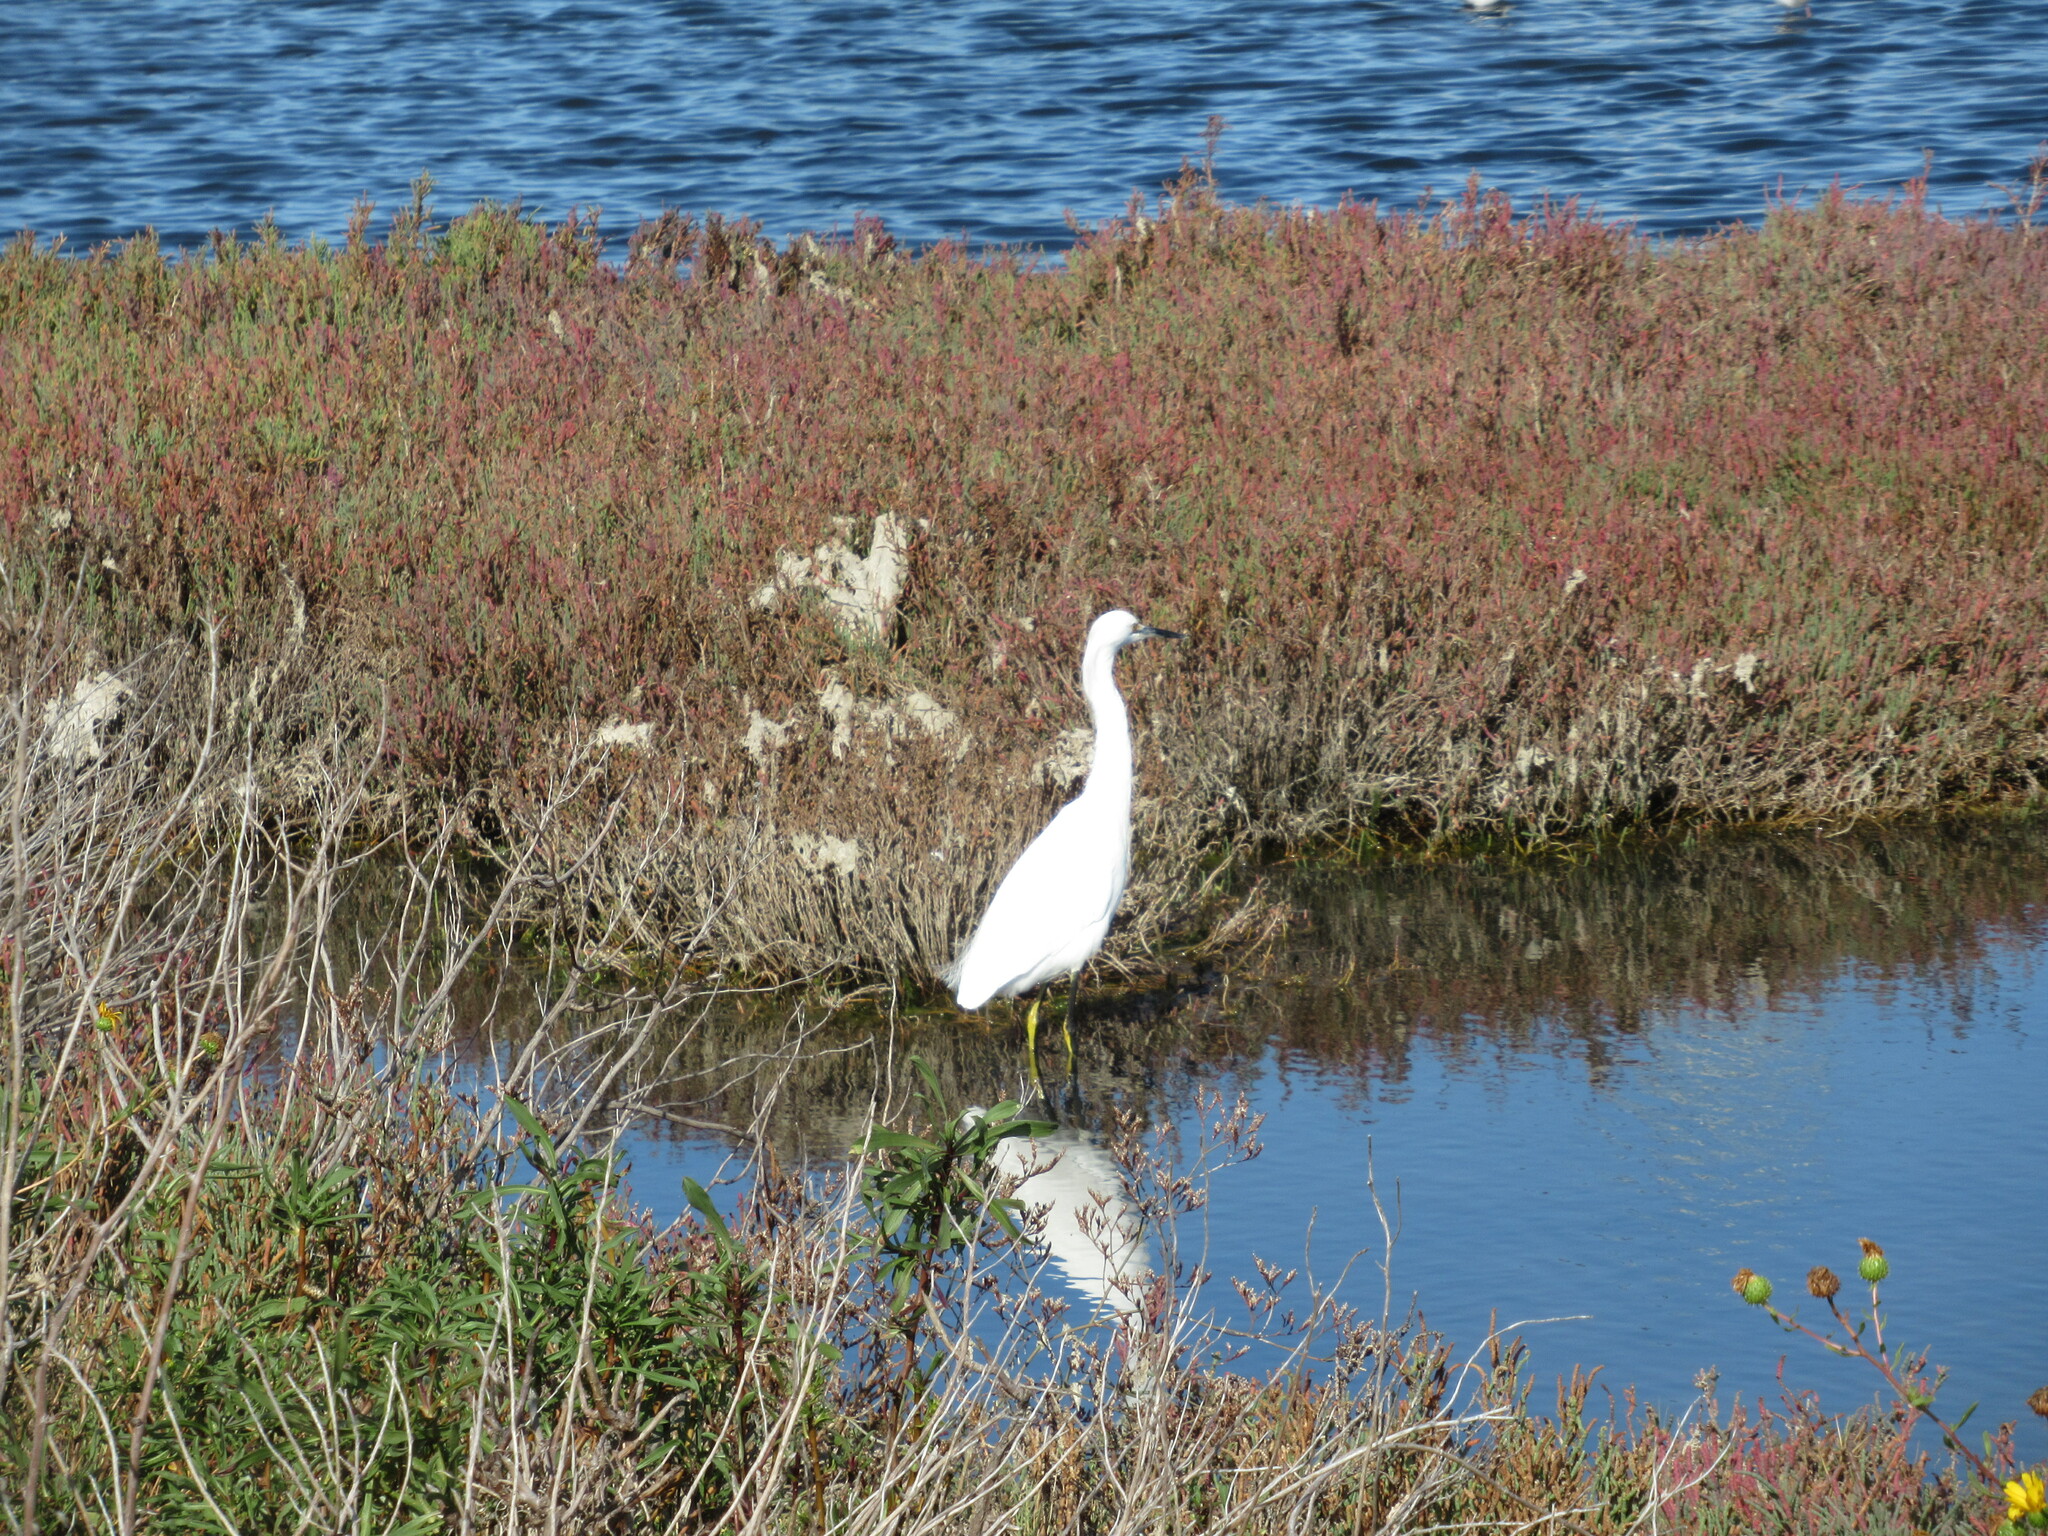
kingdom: Animalia
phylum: Chordata
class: Aves
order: Pelecaniformes
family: Ardeidae
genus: Egretta
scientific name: Egretta thula
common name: Snowy egret
